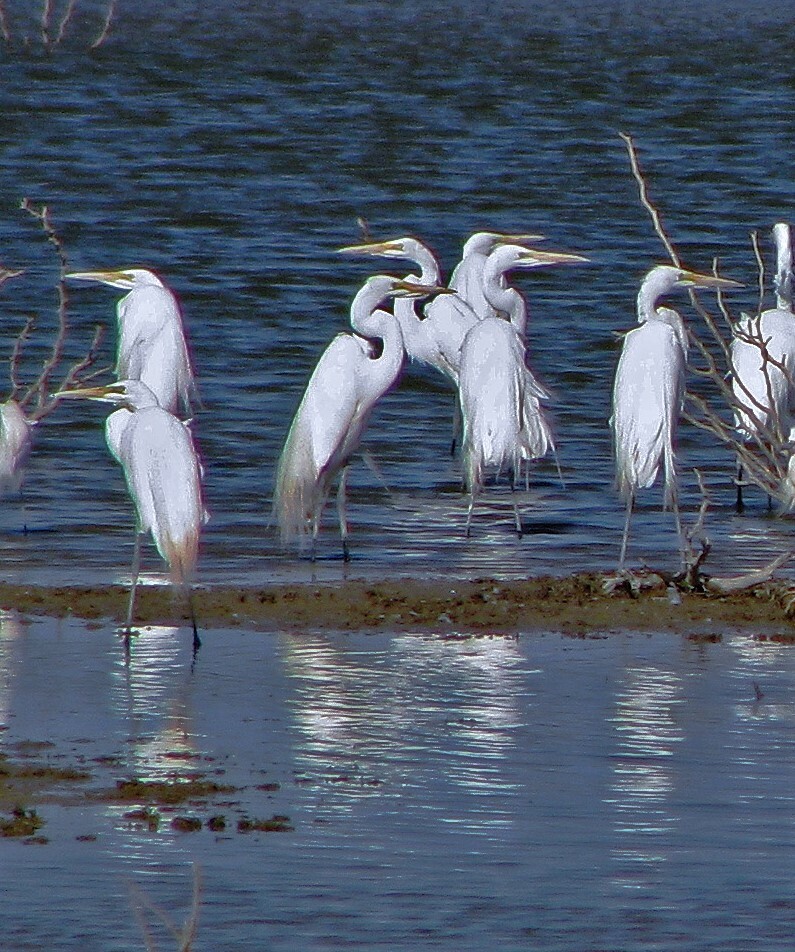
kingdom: Animalia
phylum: Chordata
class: Aves
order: Pelecaniformes
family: Ardeidae
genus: Ardea
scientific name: Ardea alba
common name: Great egret
